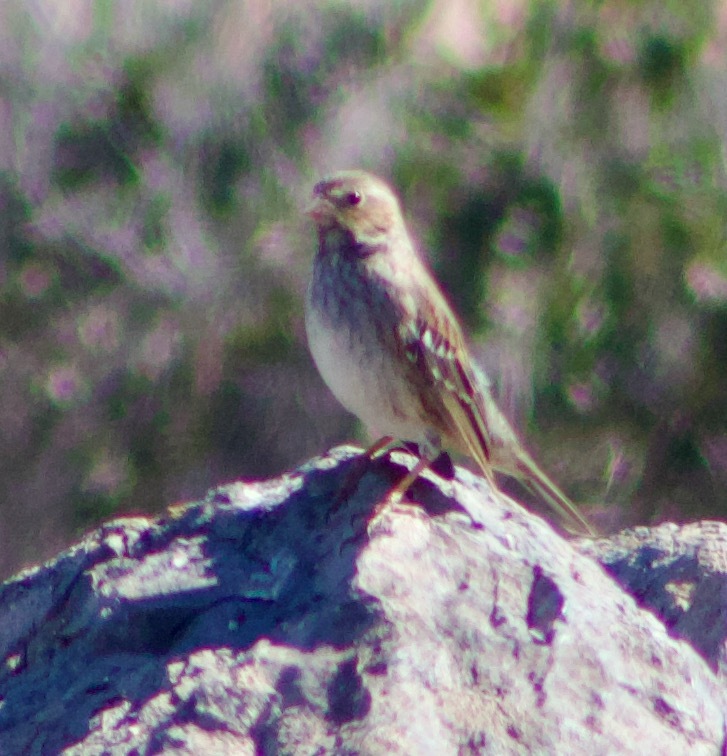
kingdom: Animalia
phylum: Chordata
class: Aves
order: Passeriformes
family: Thraupidae
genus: Rhopospina
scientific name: Rhopospina fruticeti
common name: Mourning sierra finch
